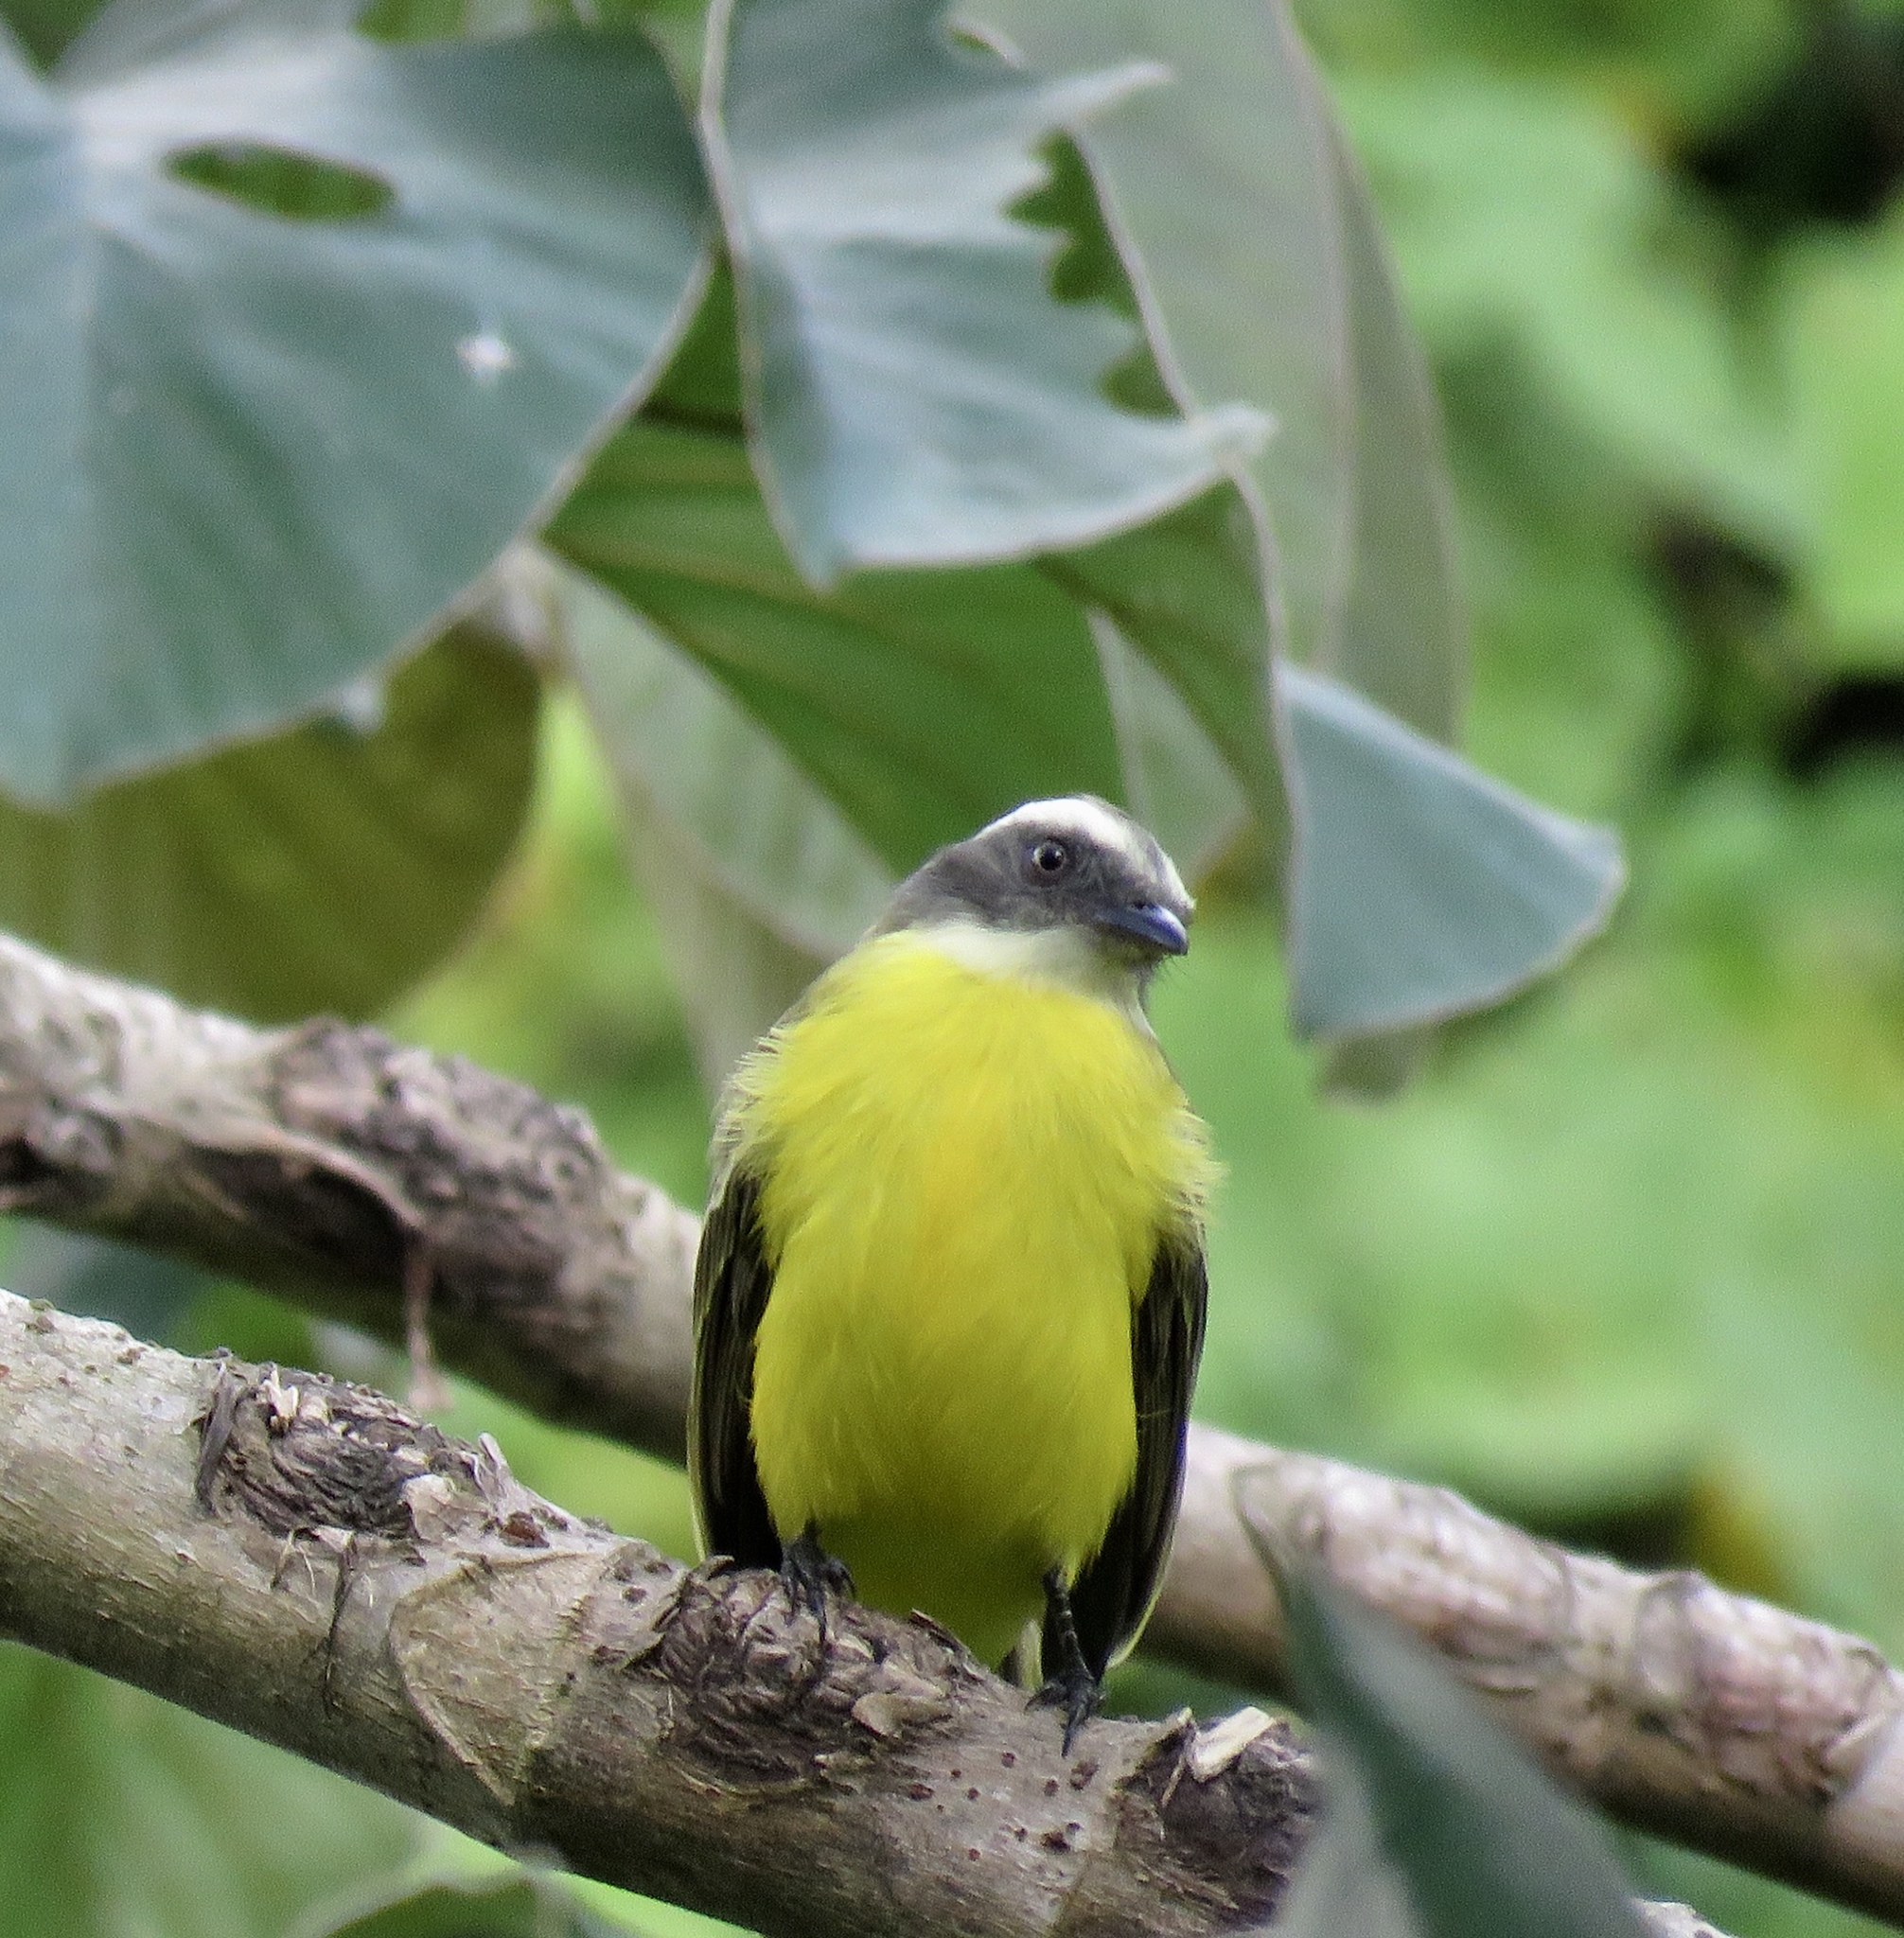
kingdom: Animalia
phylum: Chordata
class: Aves
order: Passeriformes
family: Tyrannidae
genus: Myiozetetes
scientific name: Myiozetetes similis
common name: Social flycatcher
